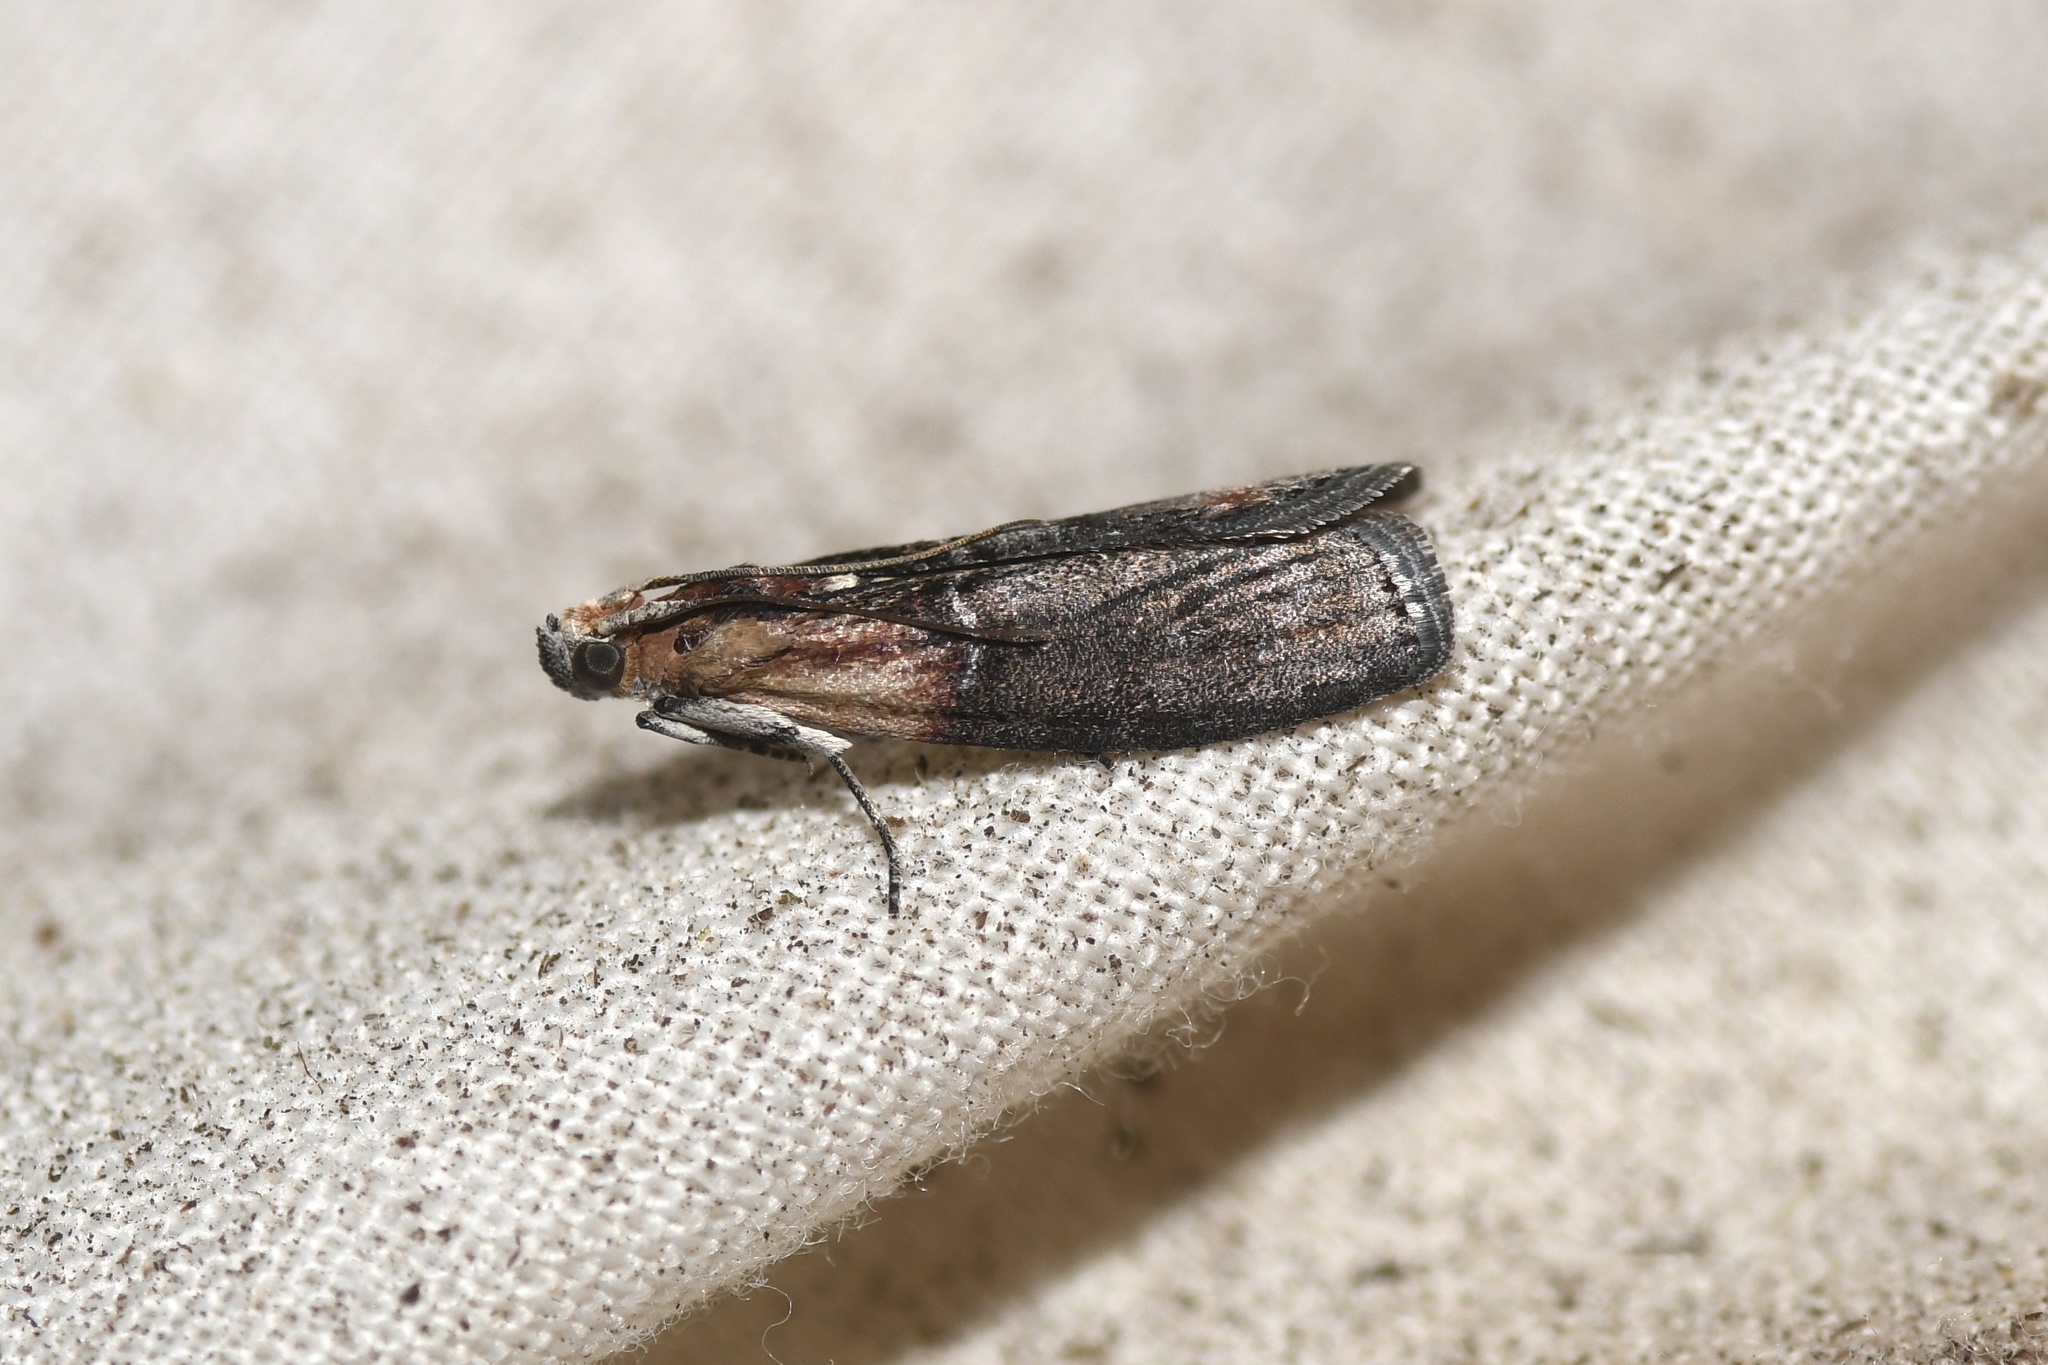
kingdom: Animalia
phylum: Arthropoda
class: Insecta
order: Lepidoptera
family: Pyralidae
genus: Sciota
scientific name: Sciota basilaris
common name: Yellow-shouldered leafroller
